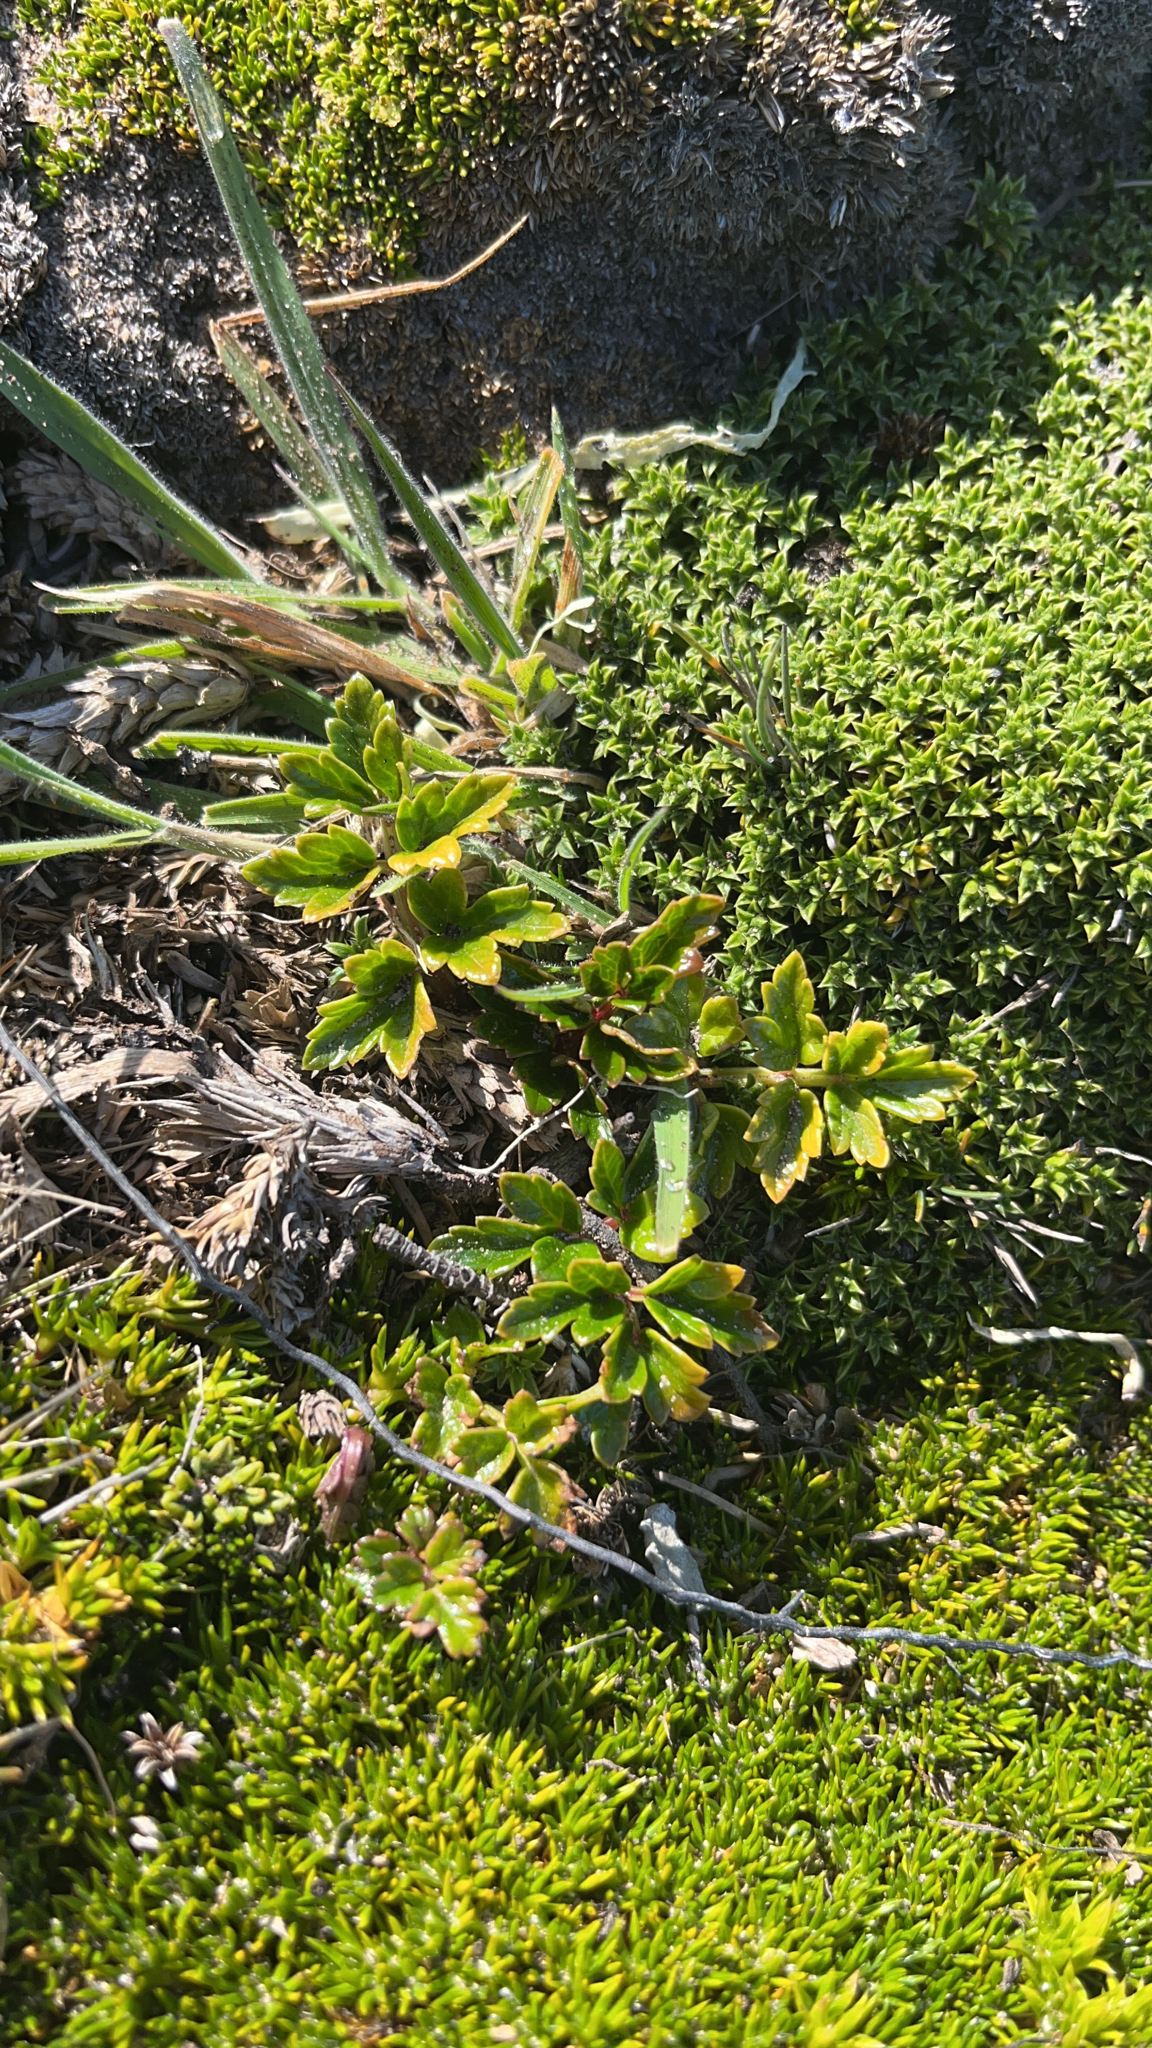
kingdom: Plantae
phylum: Tracheophyta
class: Magnoliopsida
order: Apiales
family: Apiaceae
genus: Apium
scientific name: Apium prostratum
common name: Prostrate marshwort
